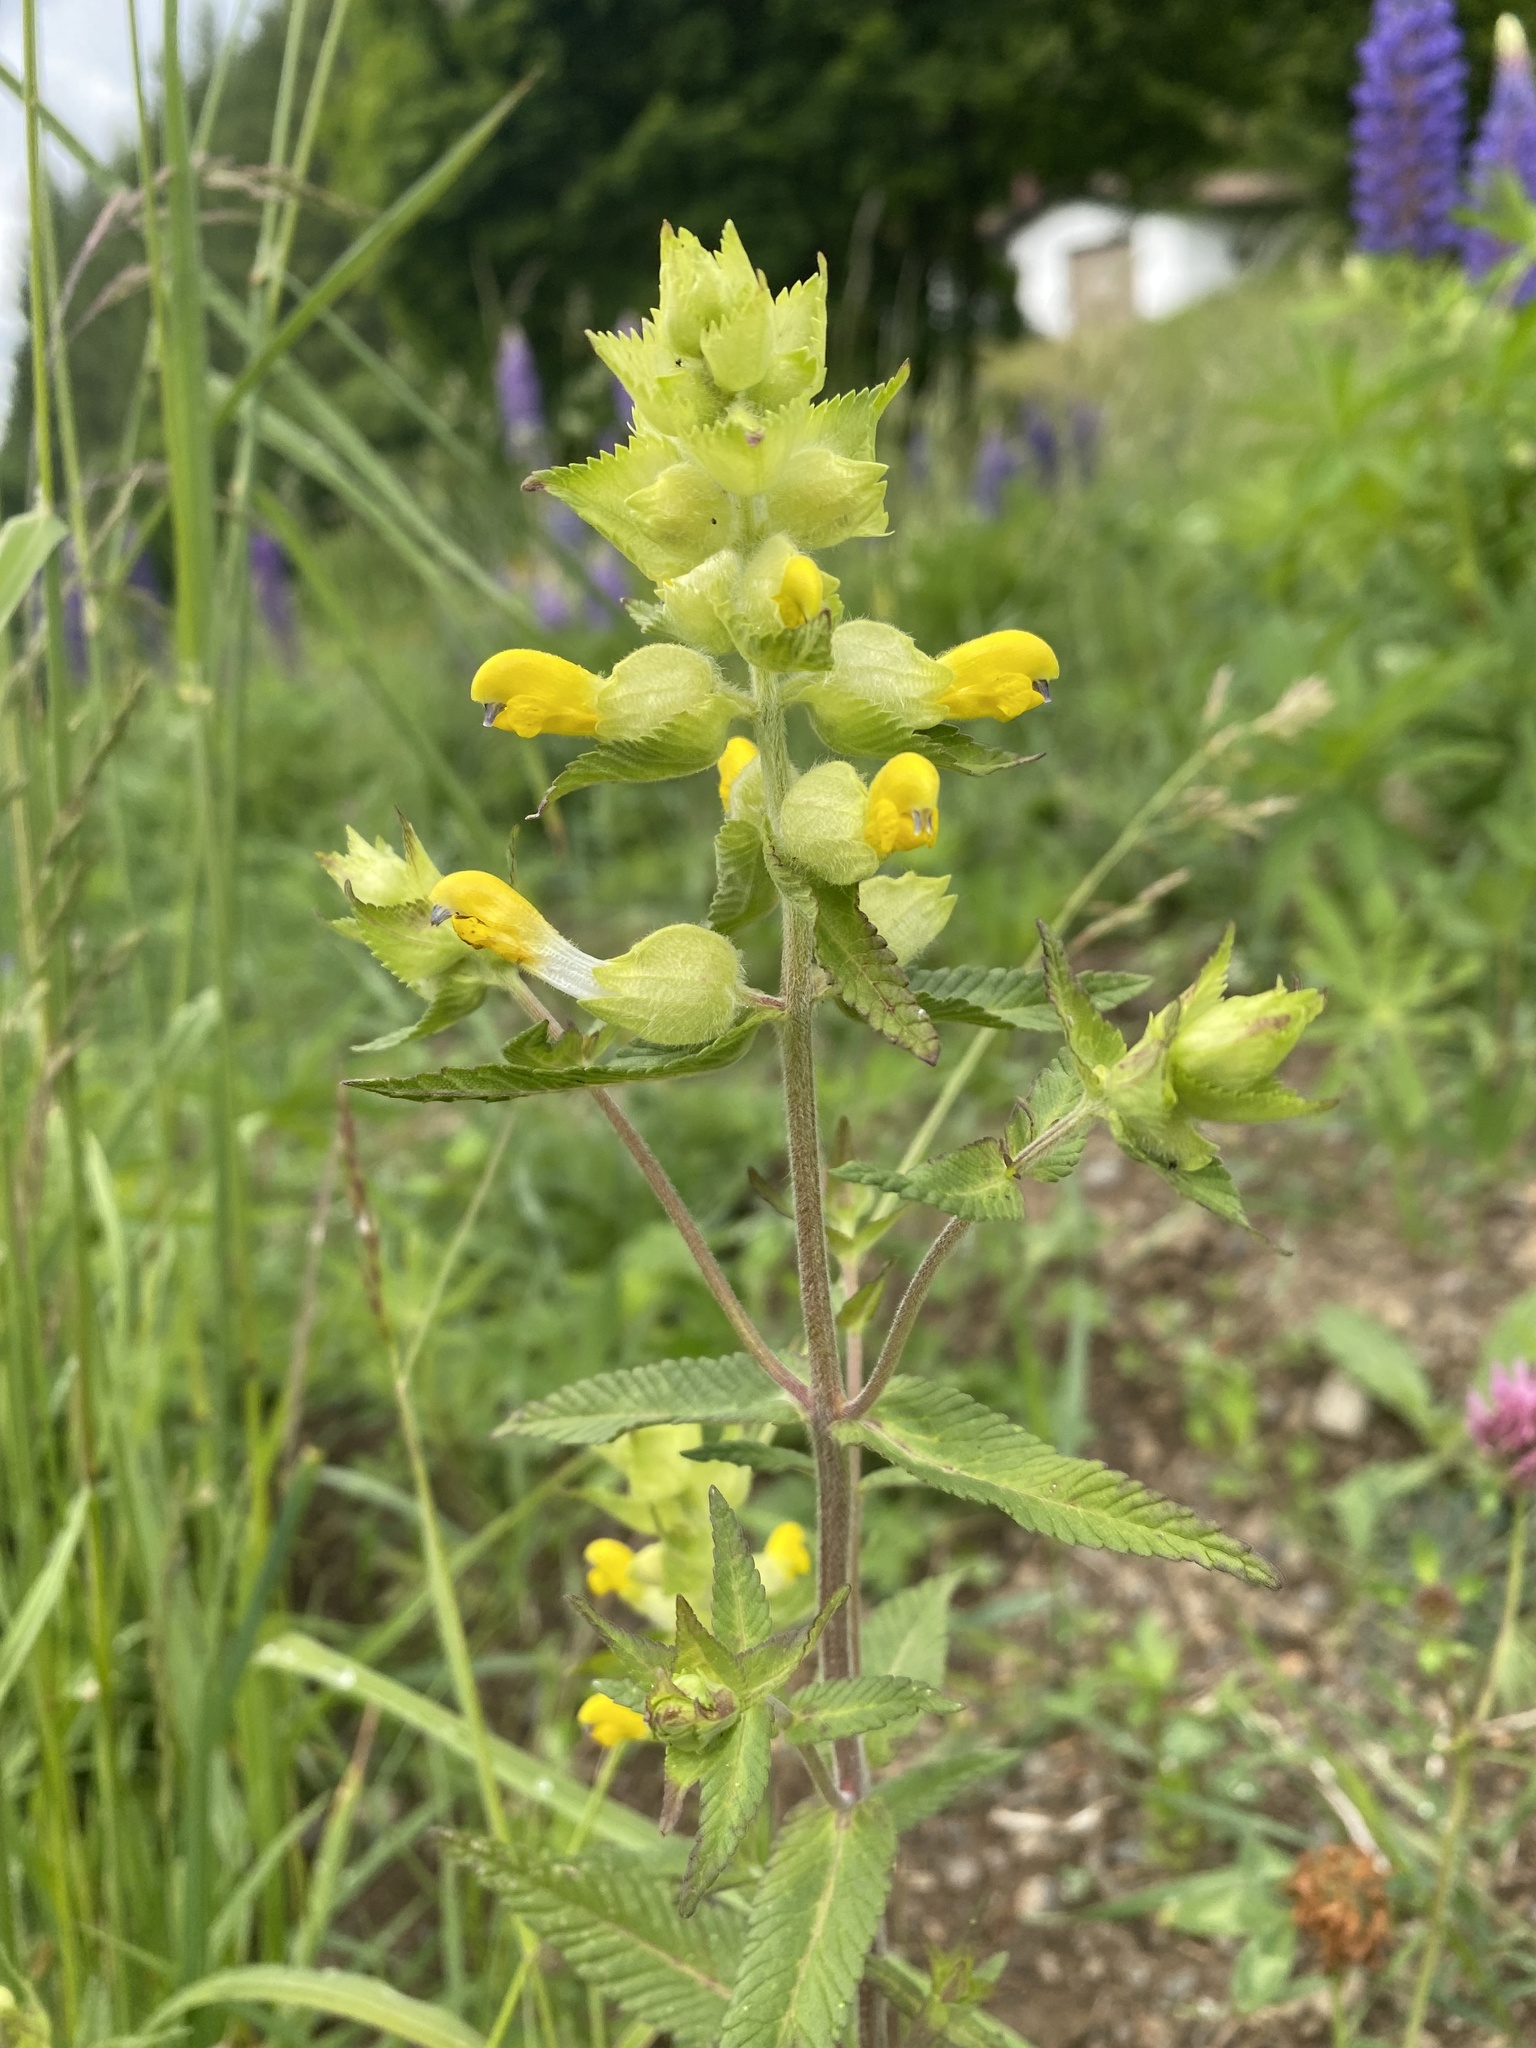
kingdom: Plantae
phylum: Tracheophyta
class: Magnoliopsida
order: Lamiales
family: Orobanchaceae
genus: Rhinanthus
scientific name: Rhinanthus alectorolophus
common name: Greater yellow-rattle
